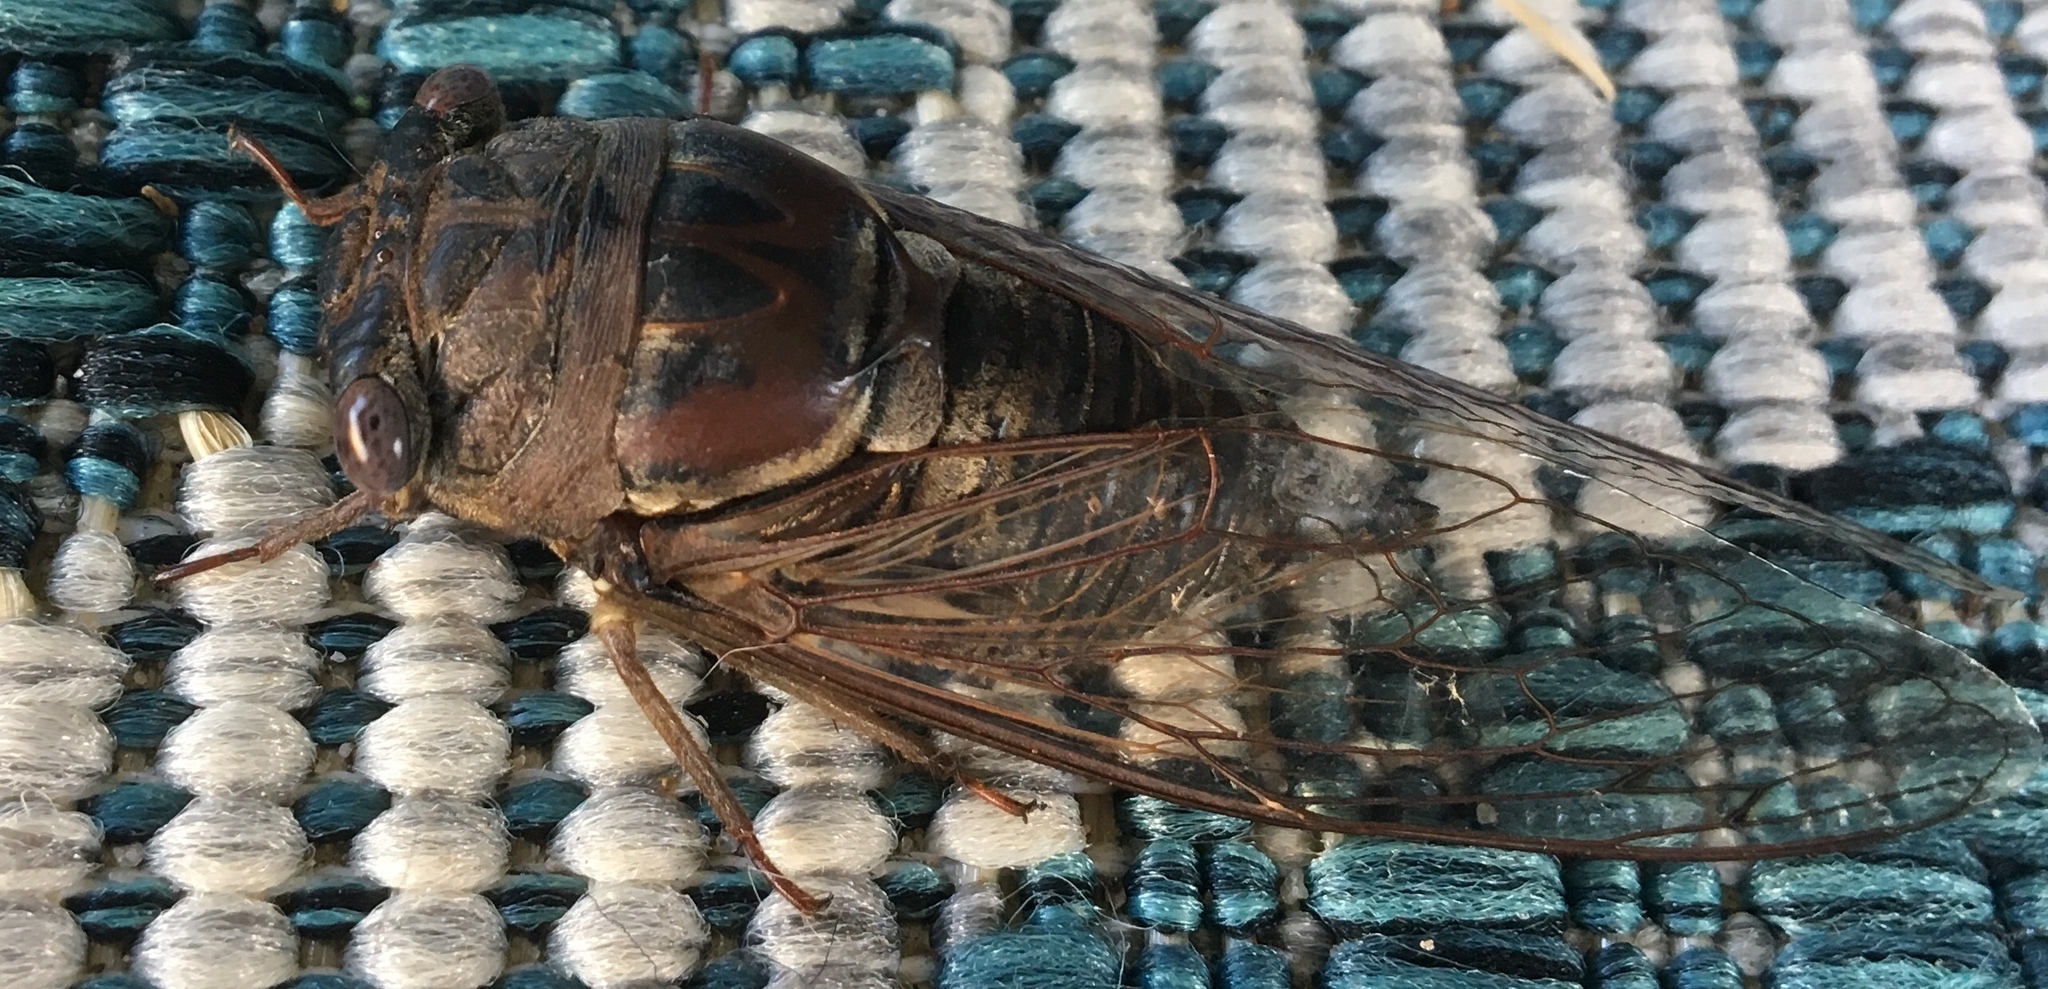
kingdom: Animalia
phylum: Arthropoda
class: Insecta
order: Hemiptera
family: Cicadidae
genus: Megatibicen
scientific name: Megatibicen resonans
